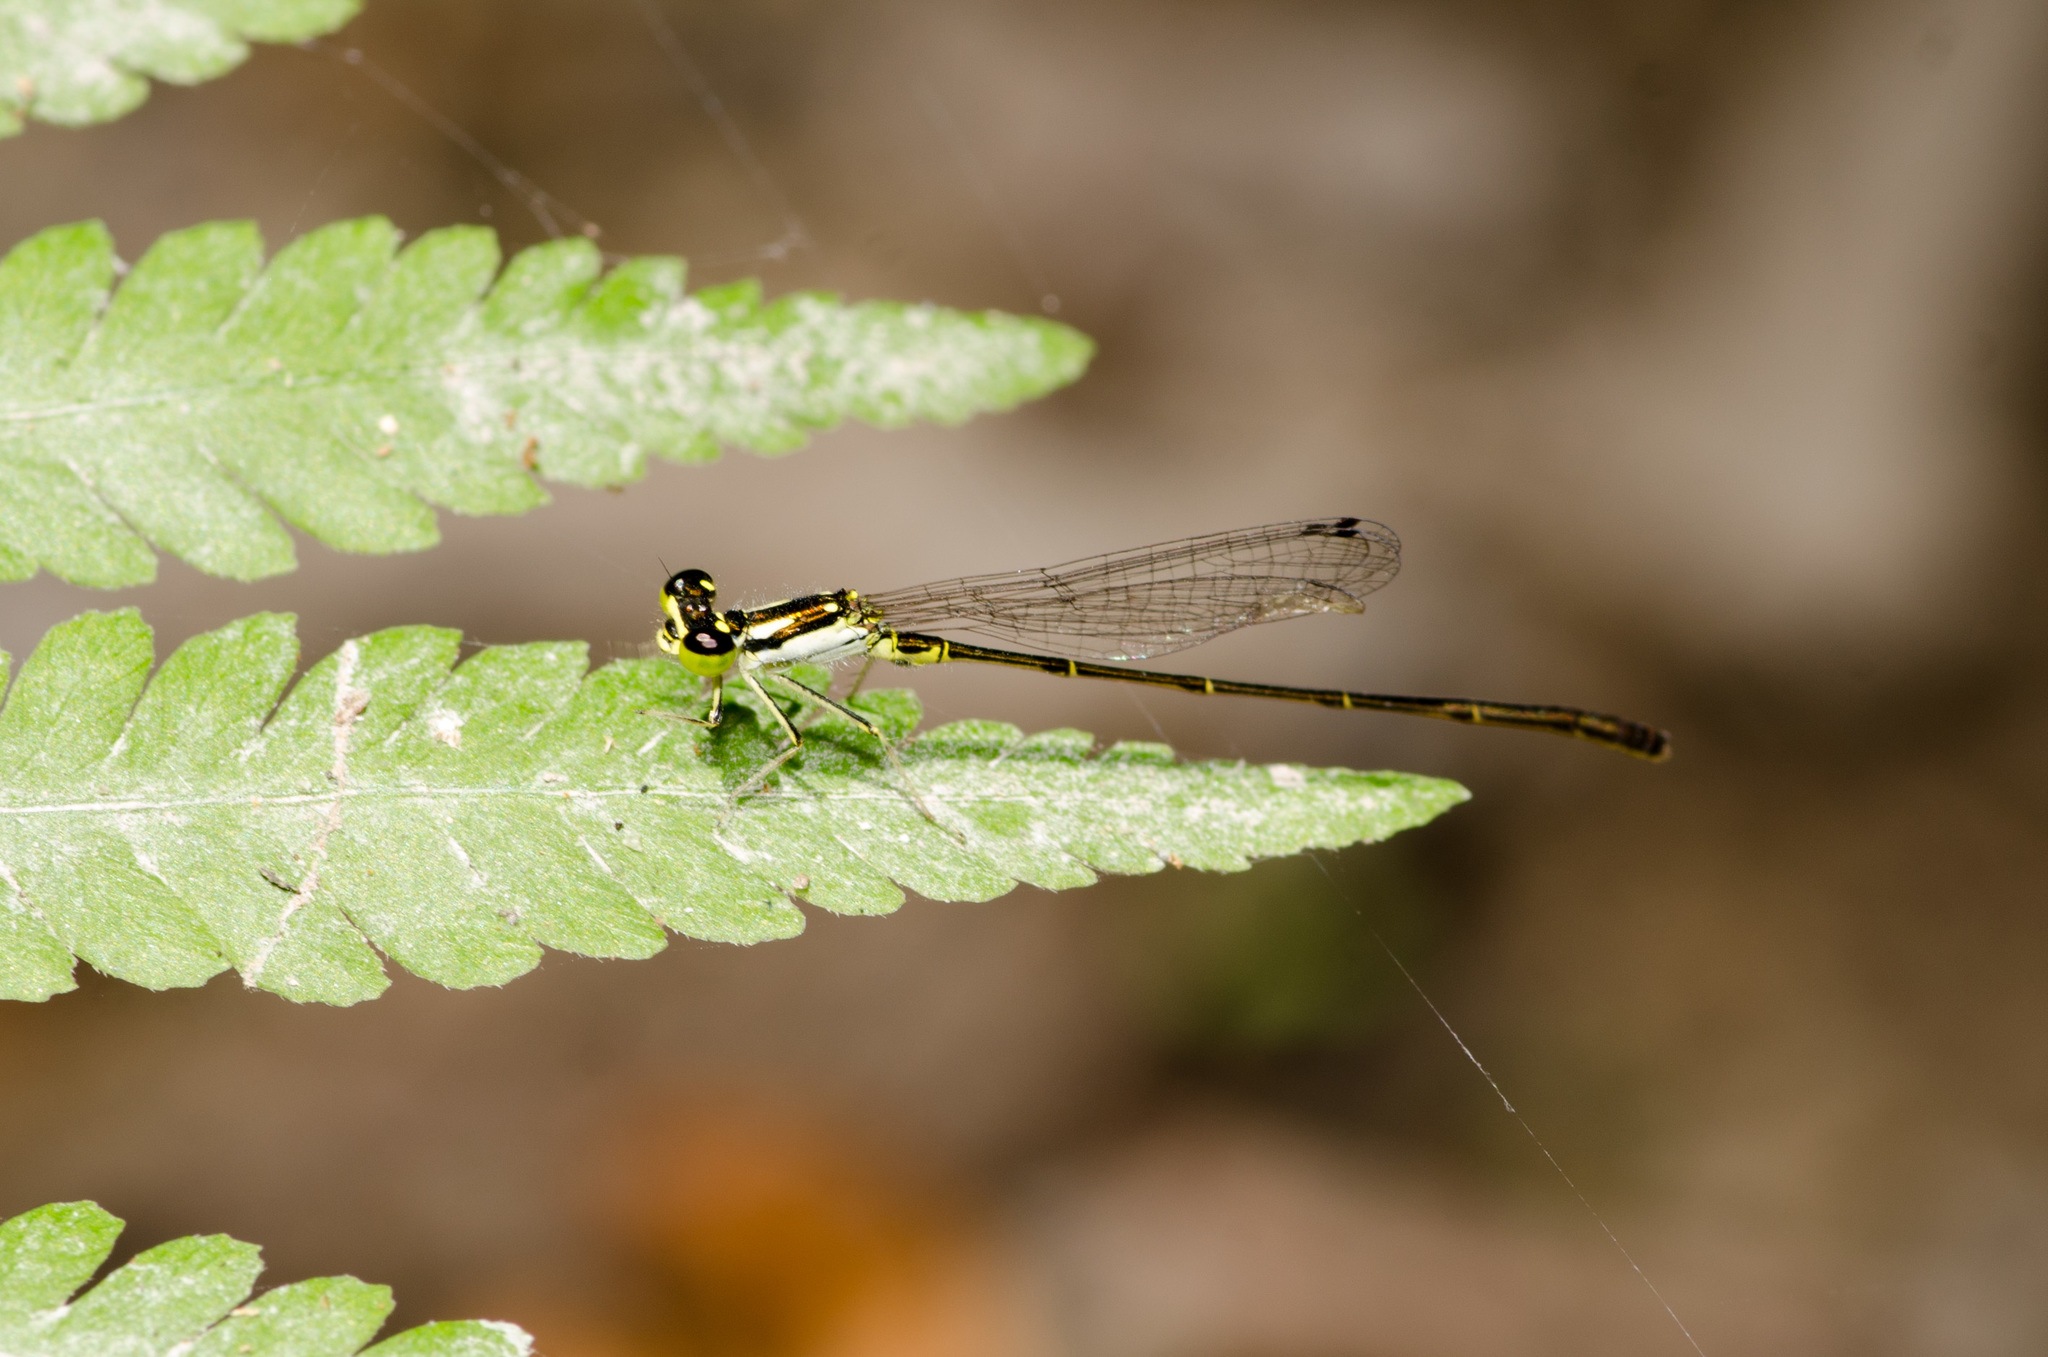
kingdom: Animalia
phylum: Arthropoda
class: Insecta
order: Odonata
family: Coenagrionidae
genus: Ischnura
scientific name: Ischnura posita
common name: Fragile forktail
